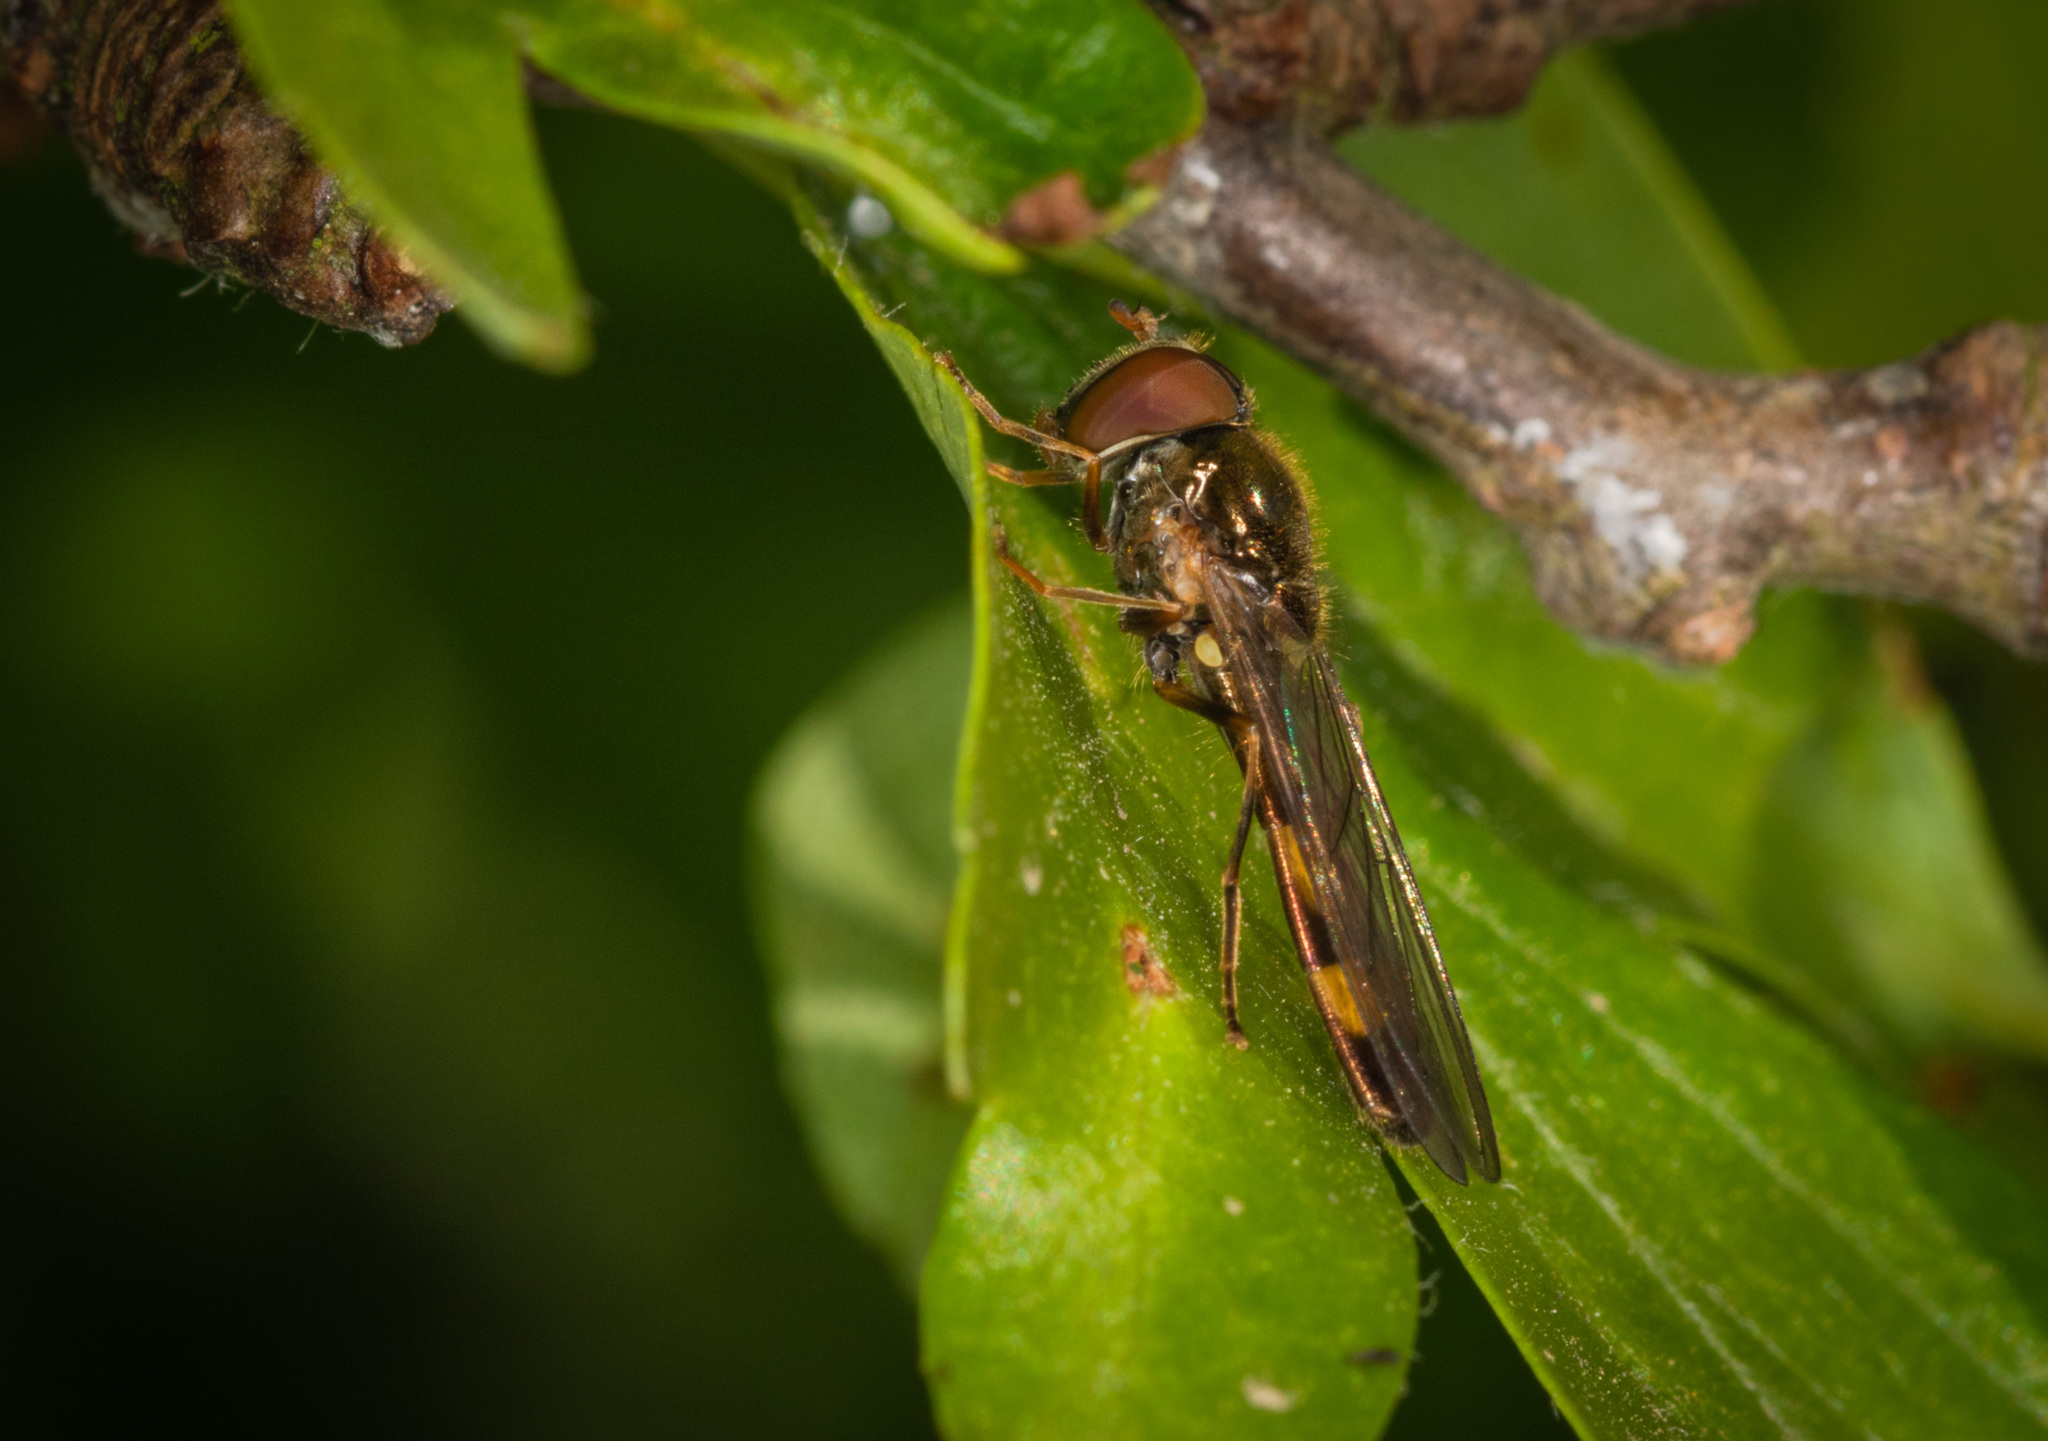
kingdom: Animalia
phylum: Arthropoda
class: Insecta
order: Diptera
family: Syrphidae
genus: Melanostoma
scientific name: Melanostoma scalare
